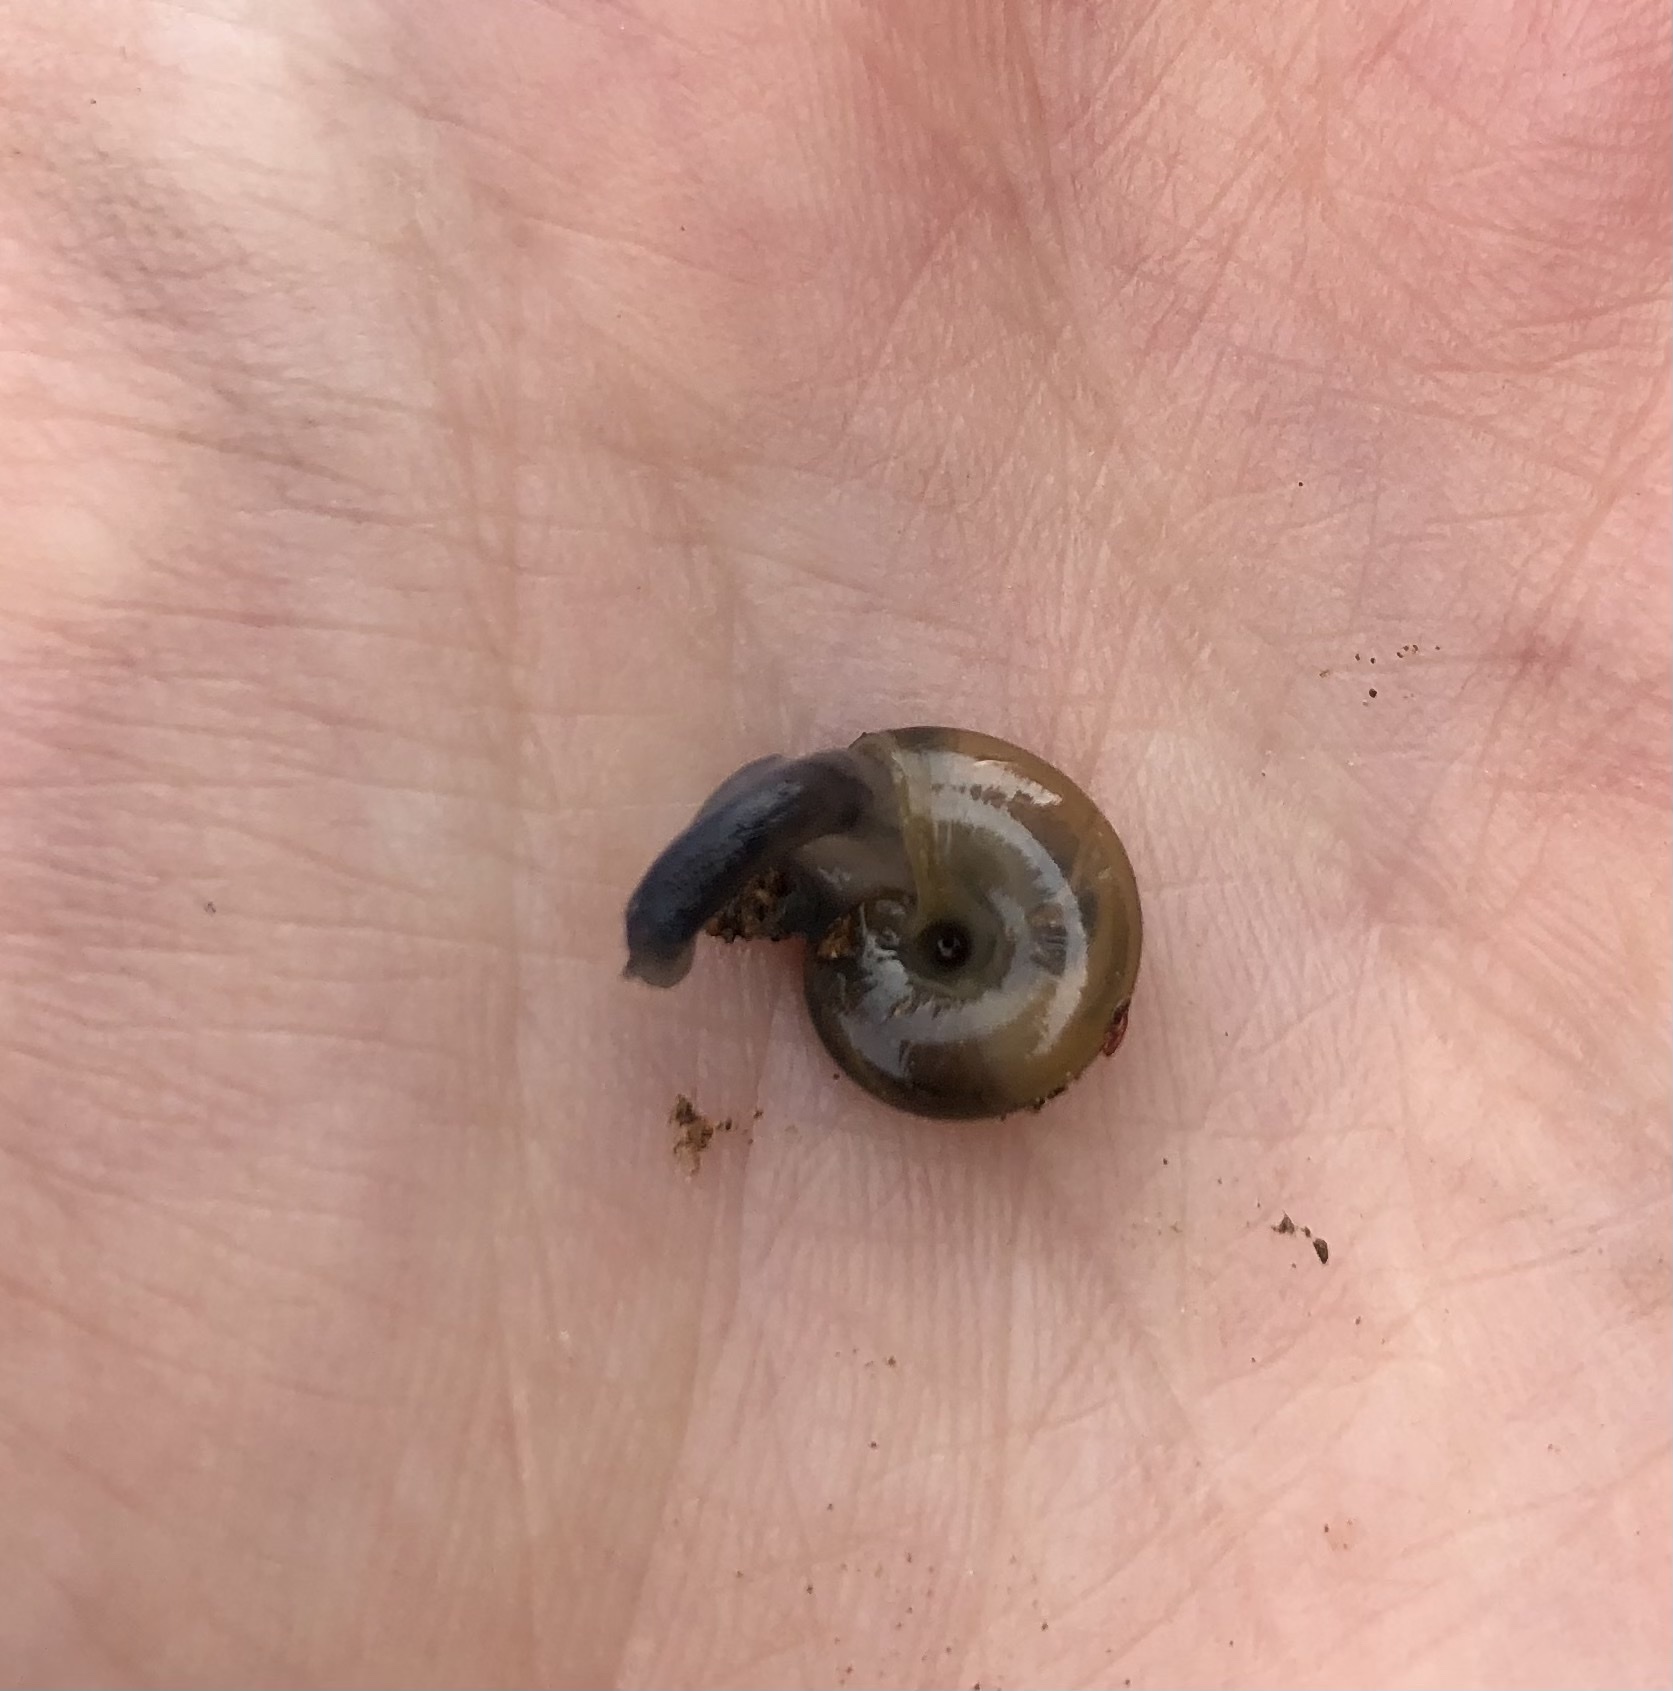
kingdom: Animalia
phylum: Mollusca
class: Gastropoda
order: Stylommatophora
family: Oxychilidae
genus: Oxychilus
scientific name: Oxychilus draparnaudi
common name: Draparnaud's glass snail
